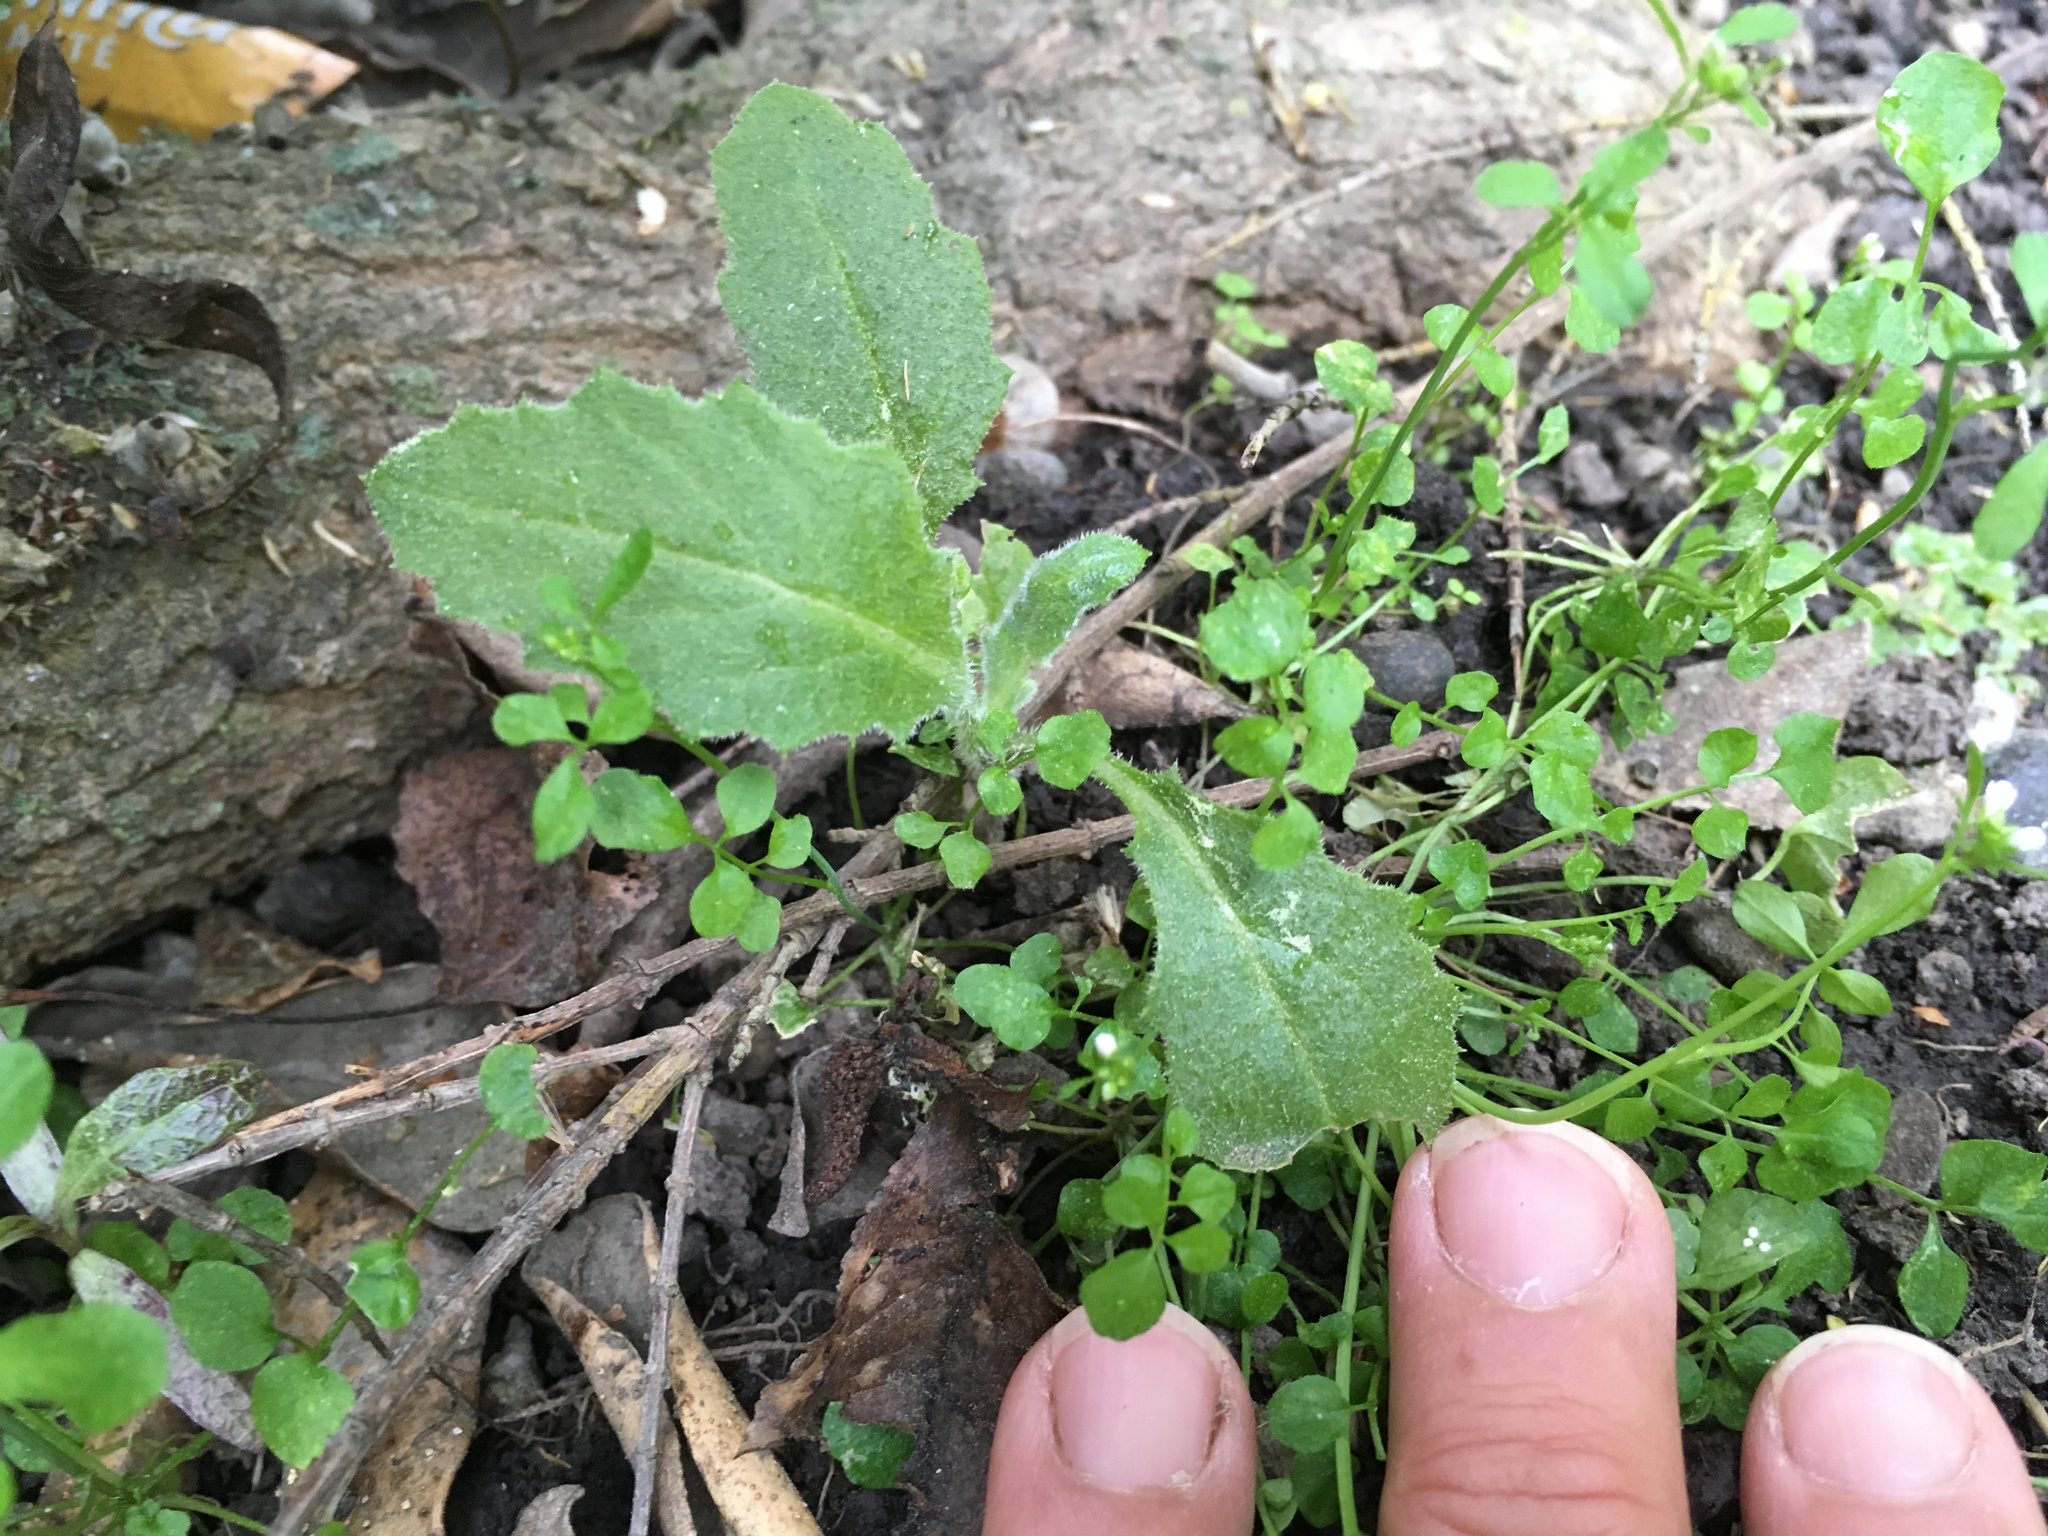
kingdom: Plantae
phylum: Tracheophyta
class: Magnoliopsida
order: Asterales
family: Asteraceae
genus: Senecio
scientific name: Senecio glomeratus
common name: Cutleaf burnweed
